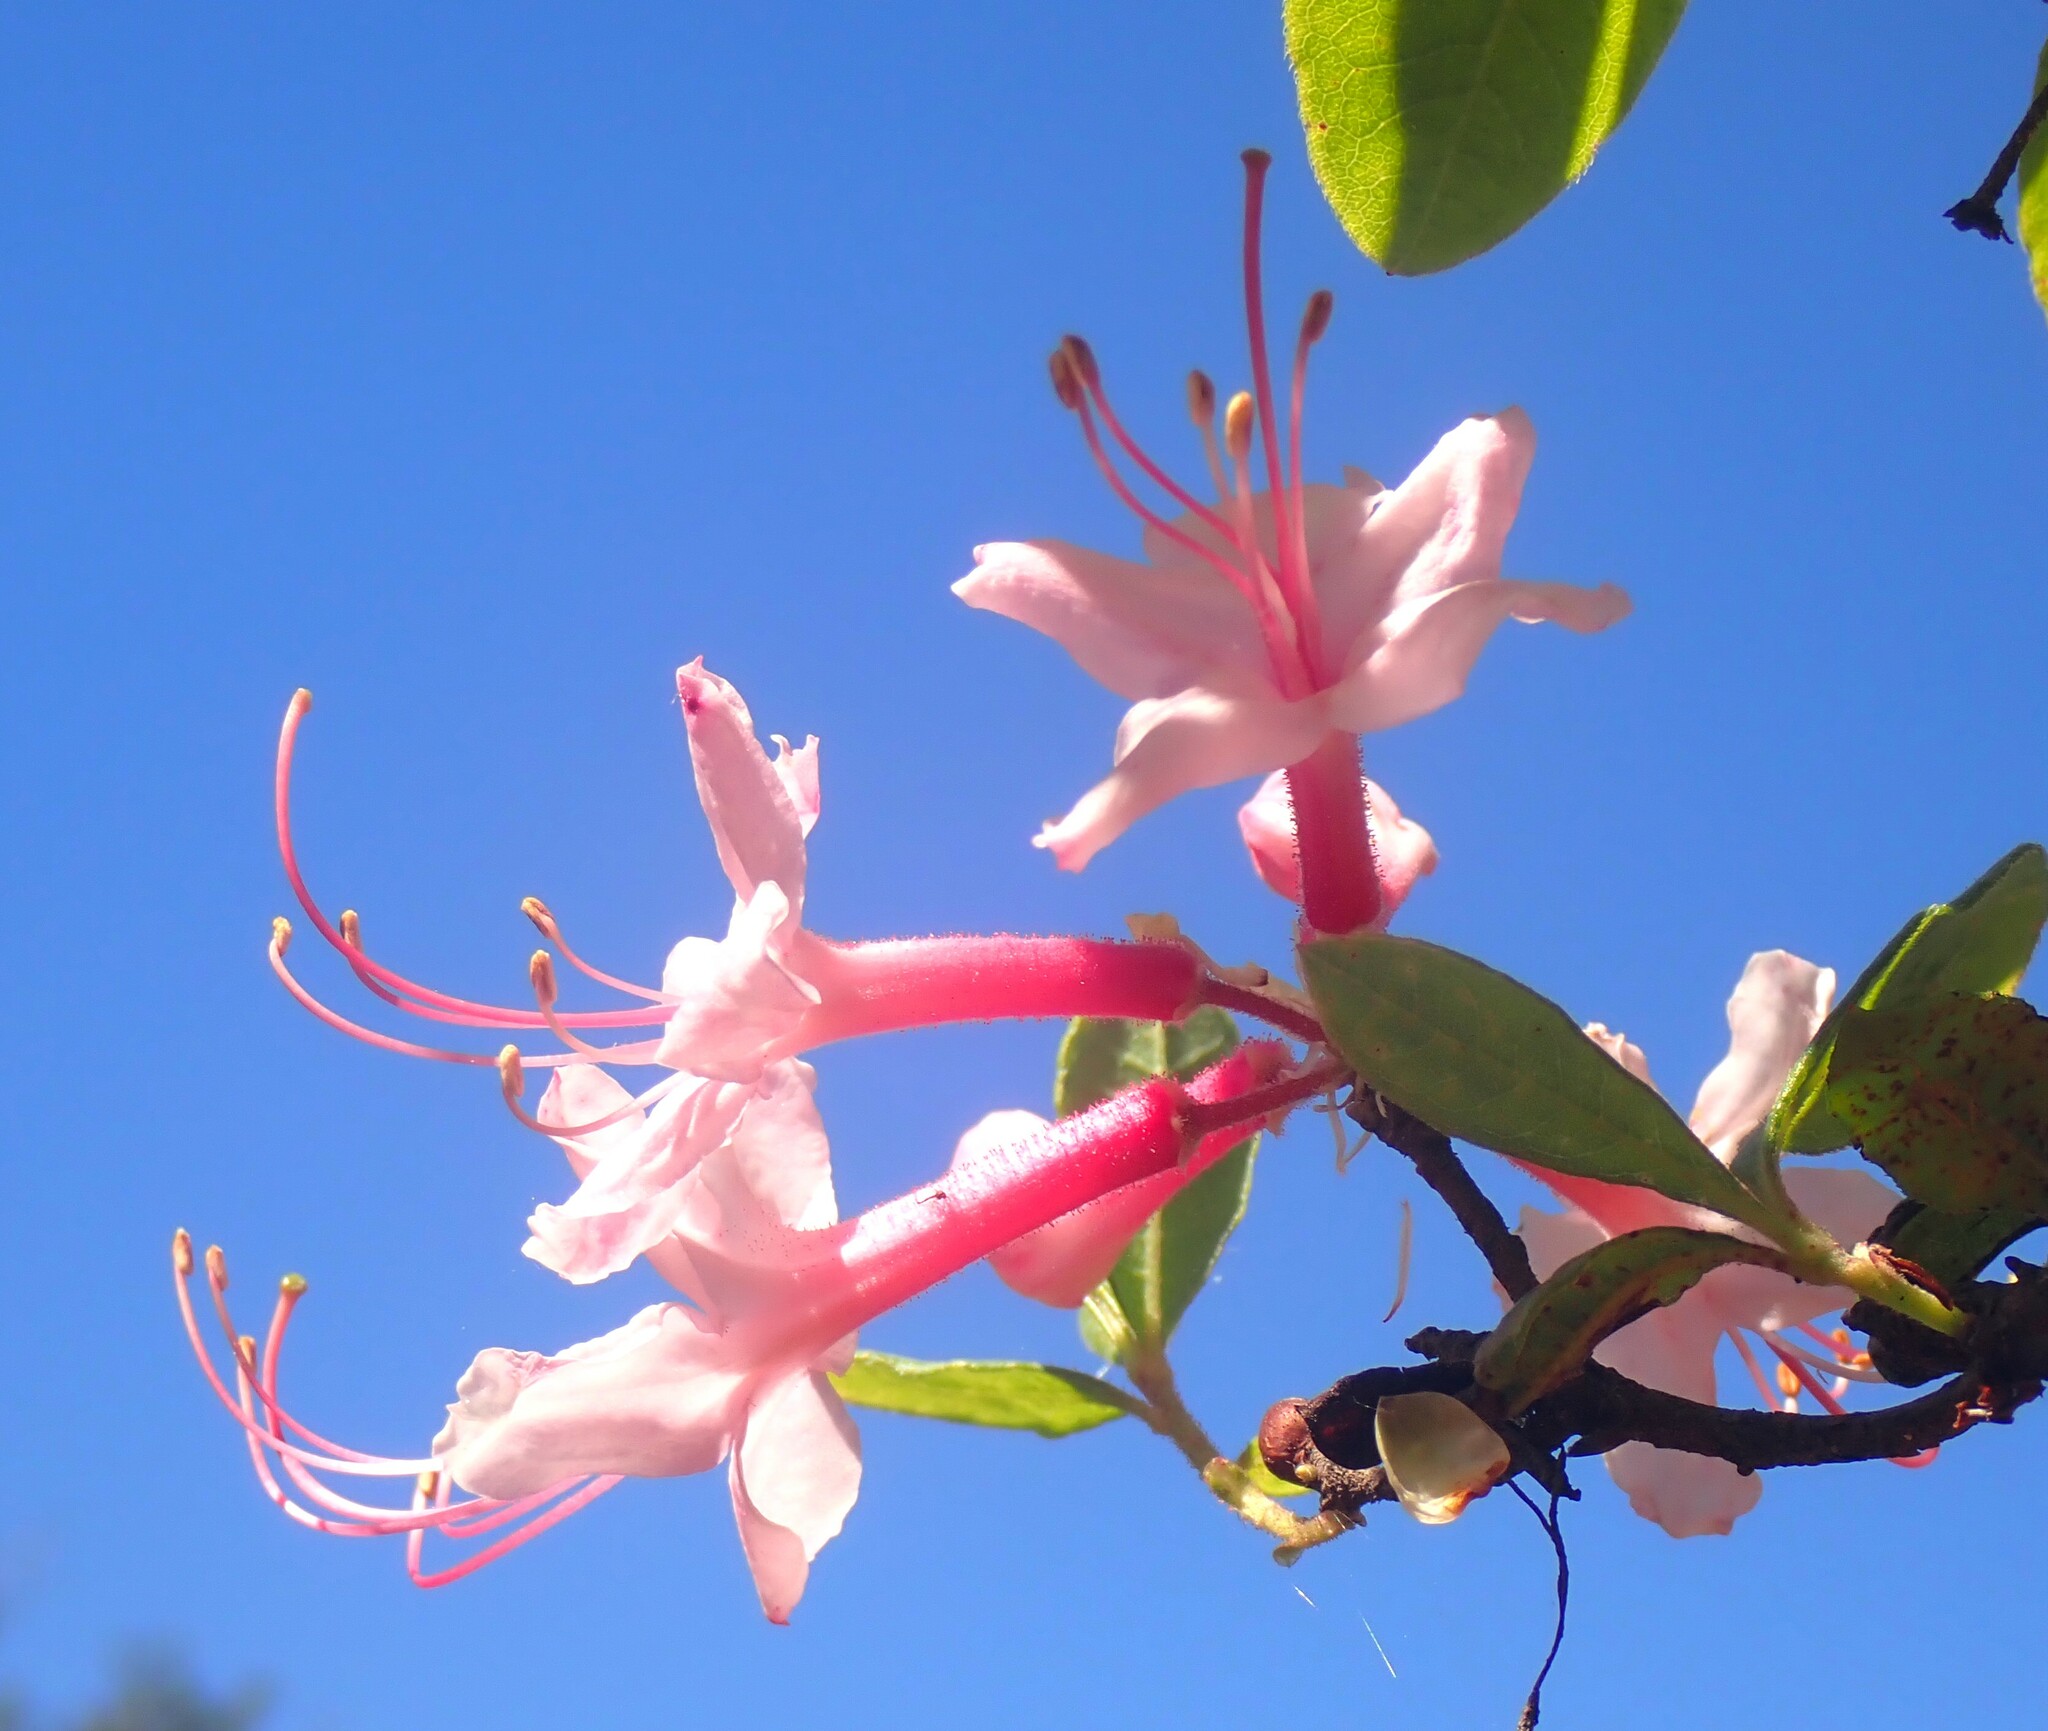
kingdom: Plantae
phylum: Tracheophyta
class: Magnoliopsida
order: Ericales
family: Ericaceae
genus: Rhododendron
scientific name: Rhododendron canescens
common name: Mountain azalea
